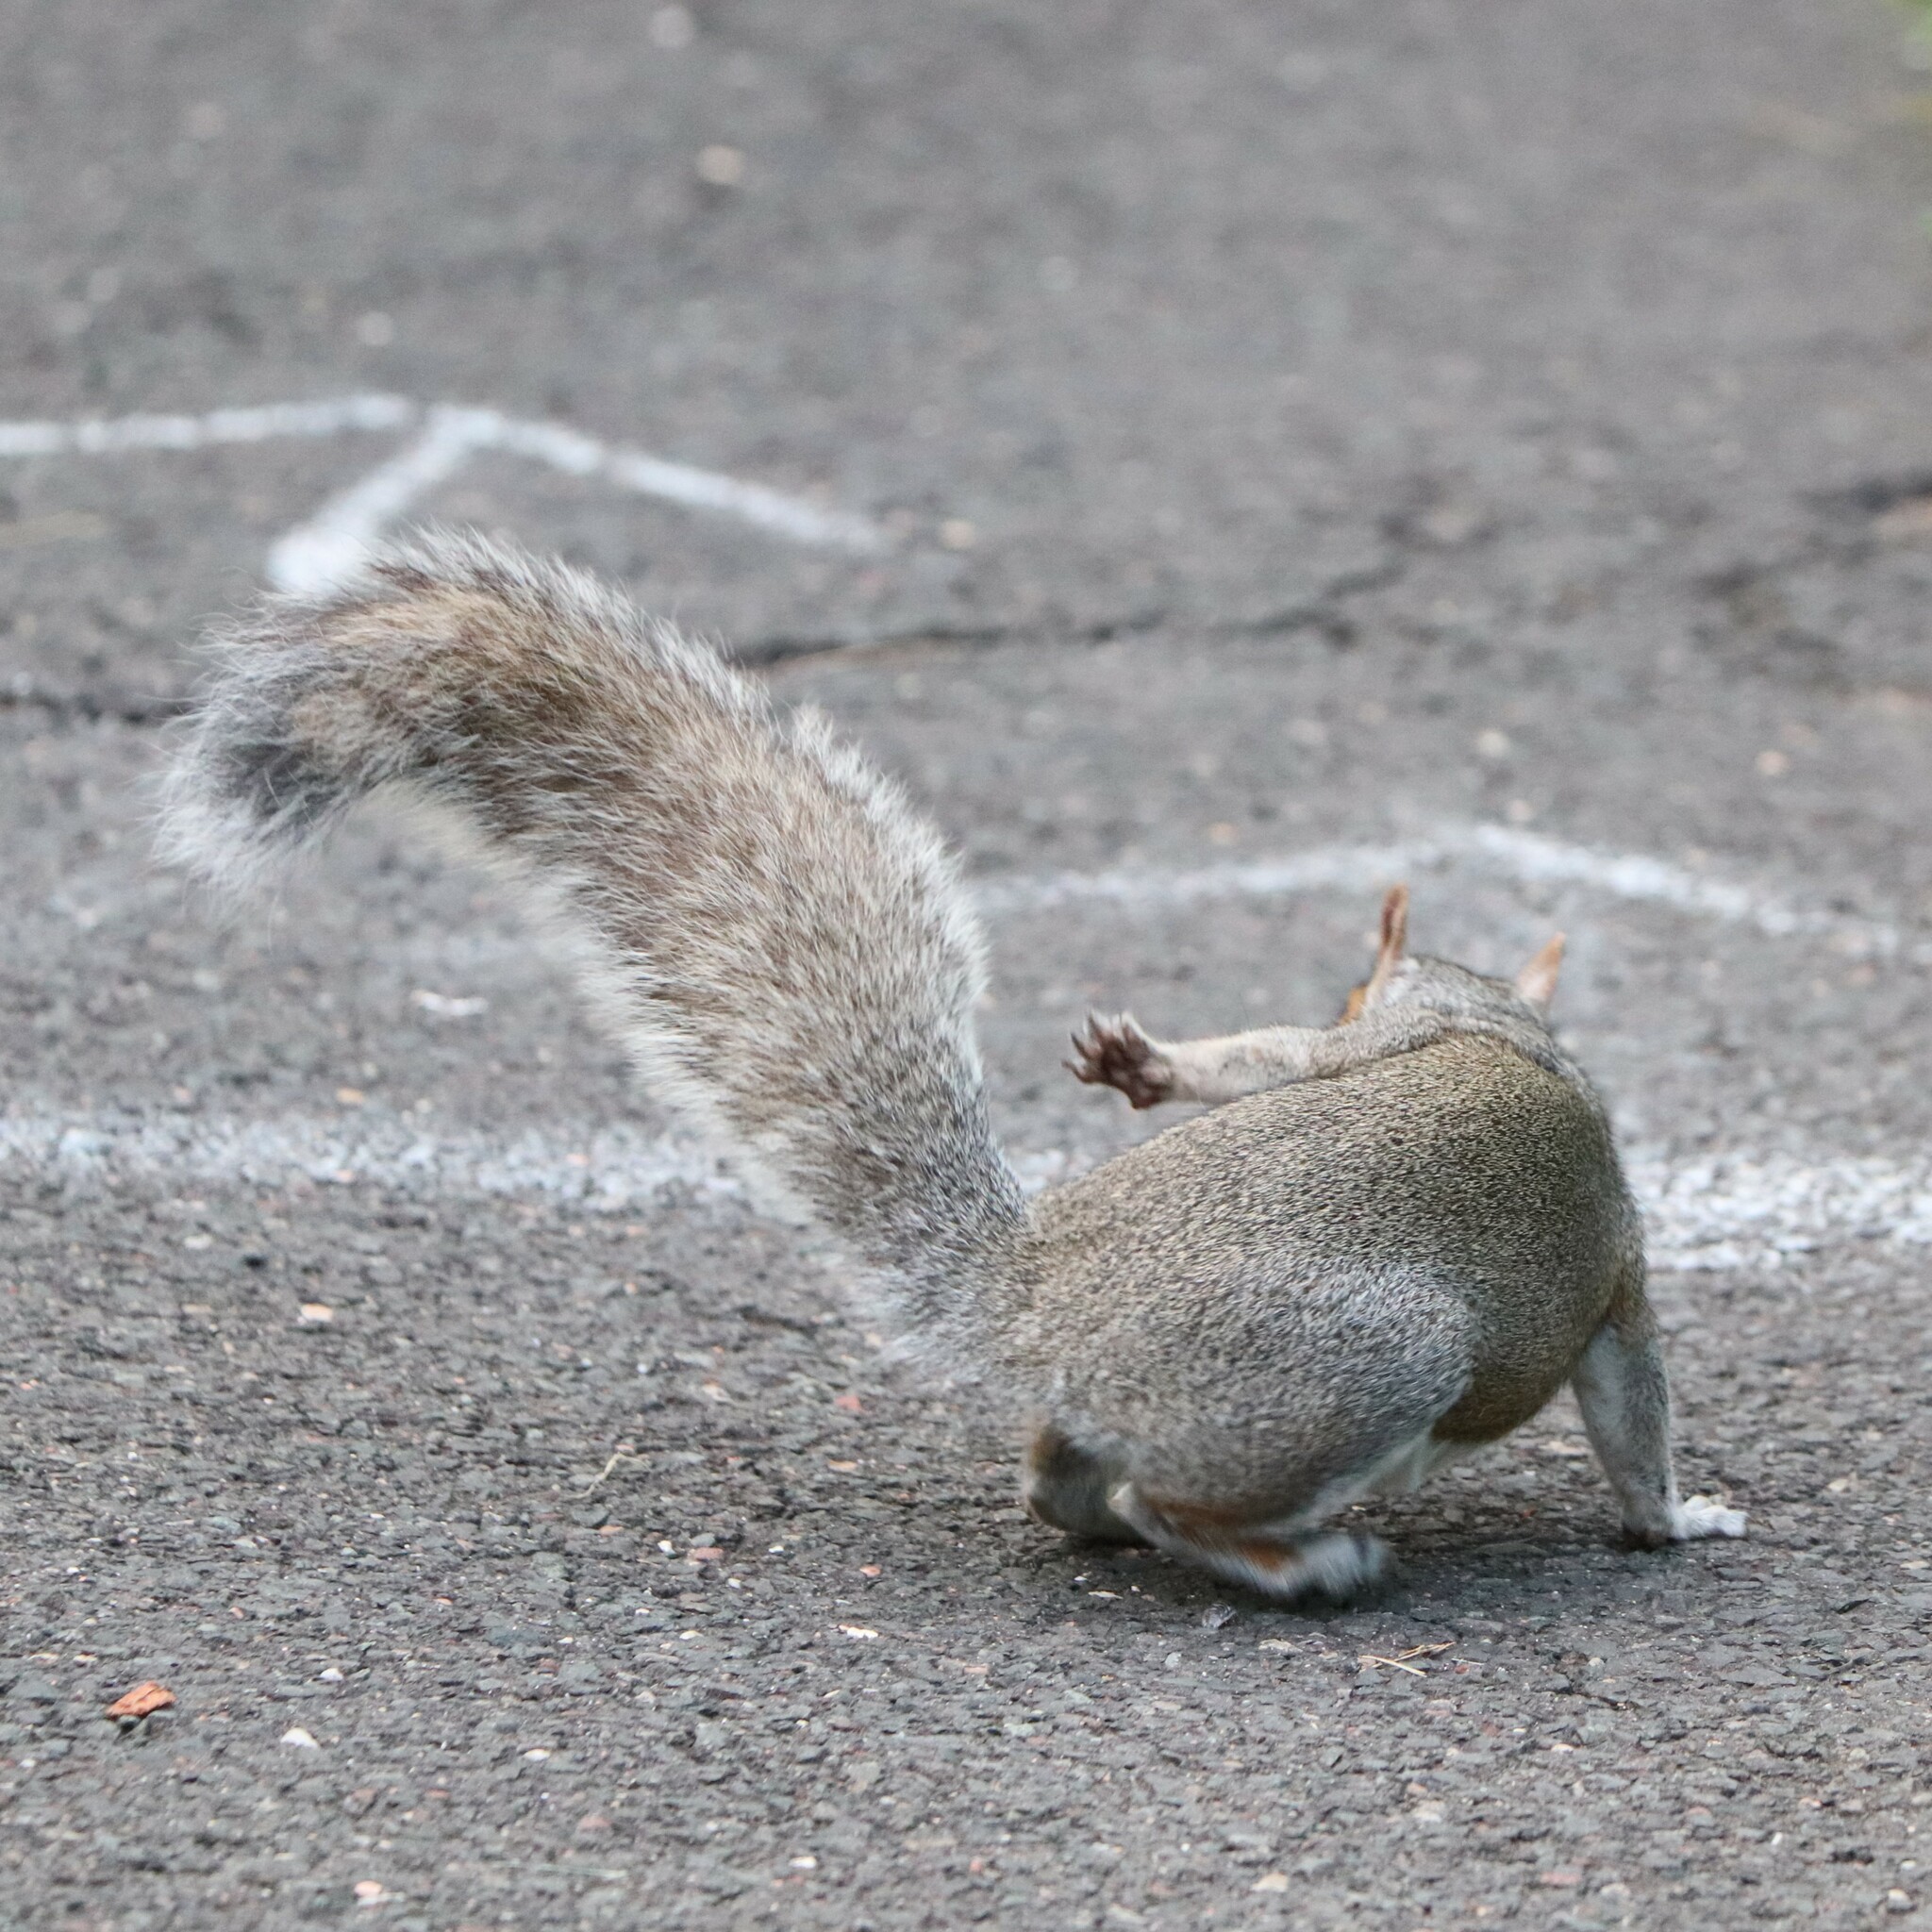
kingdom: Animalia
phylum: Chordata
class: Mammalia
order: Rodentia
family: Sciuridae
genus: Sciurus
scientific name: Sciurus carolinensis
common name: Eastern gray squirrel
